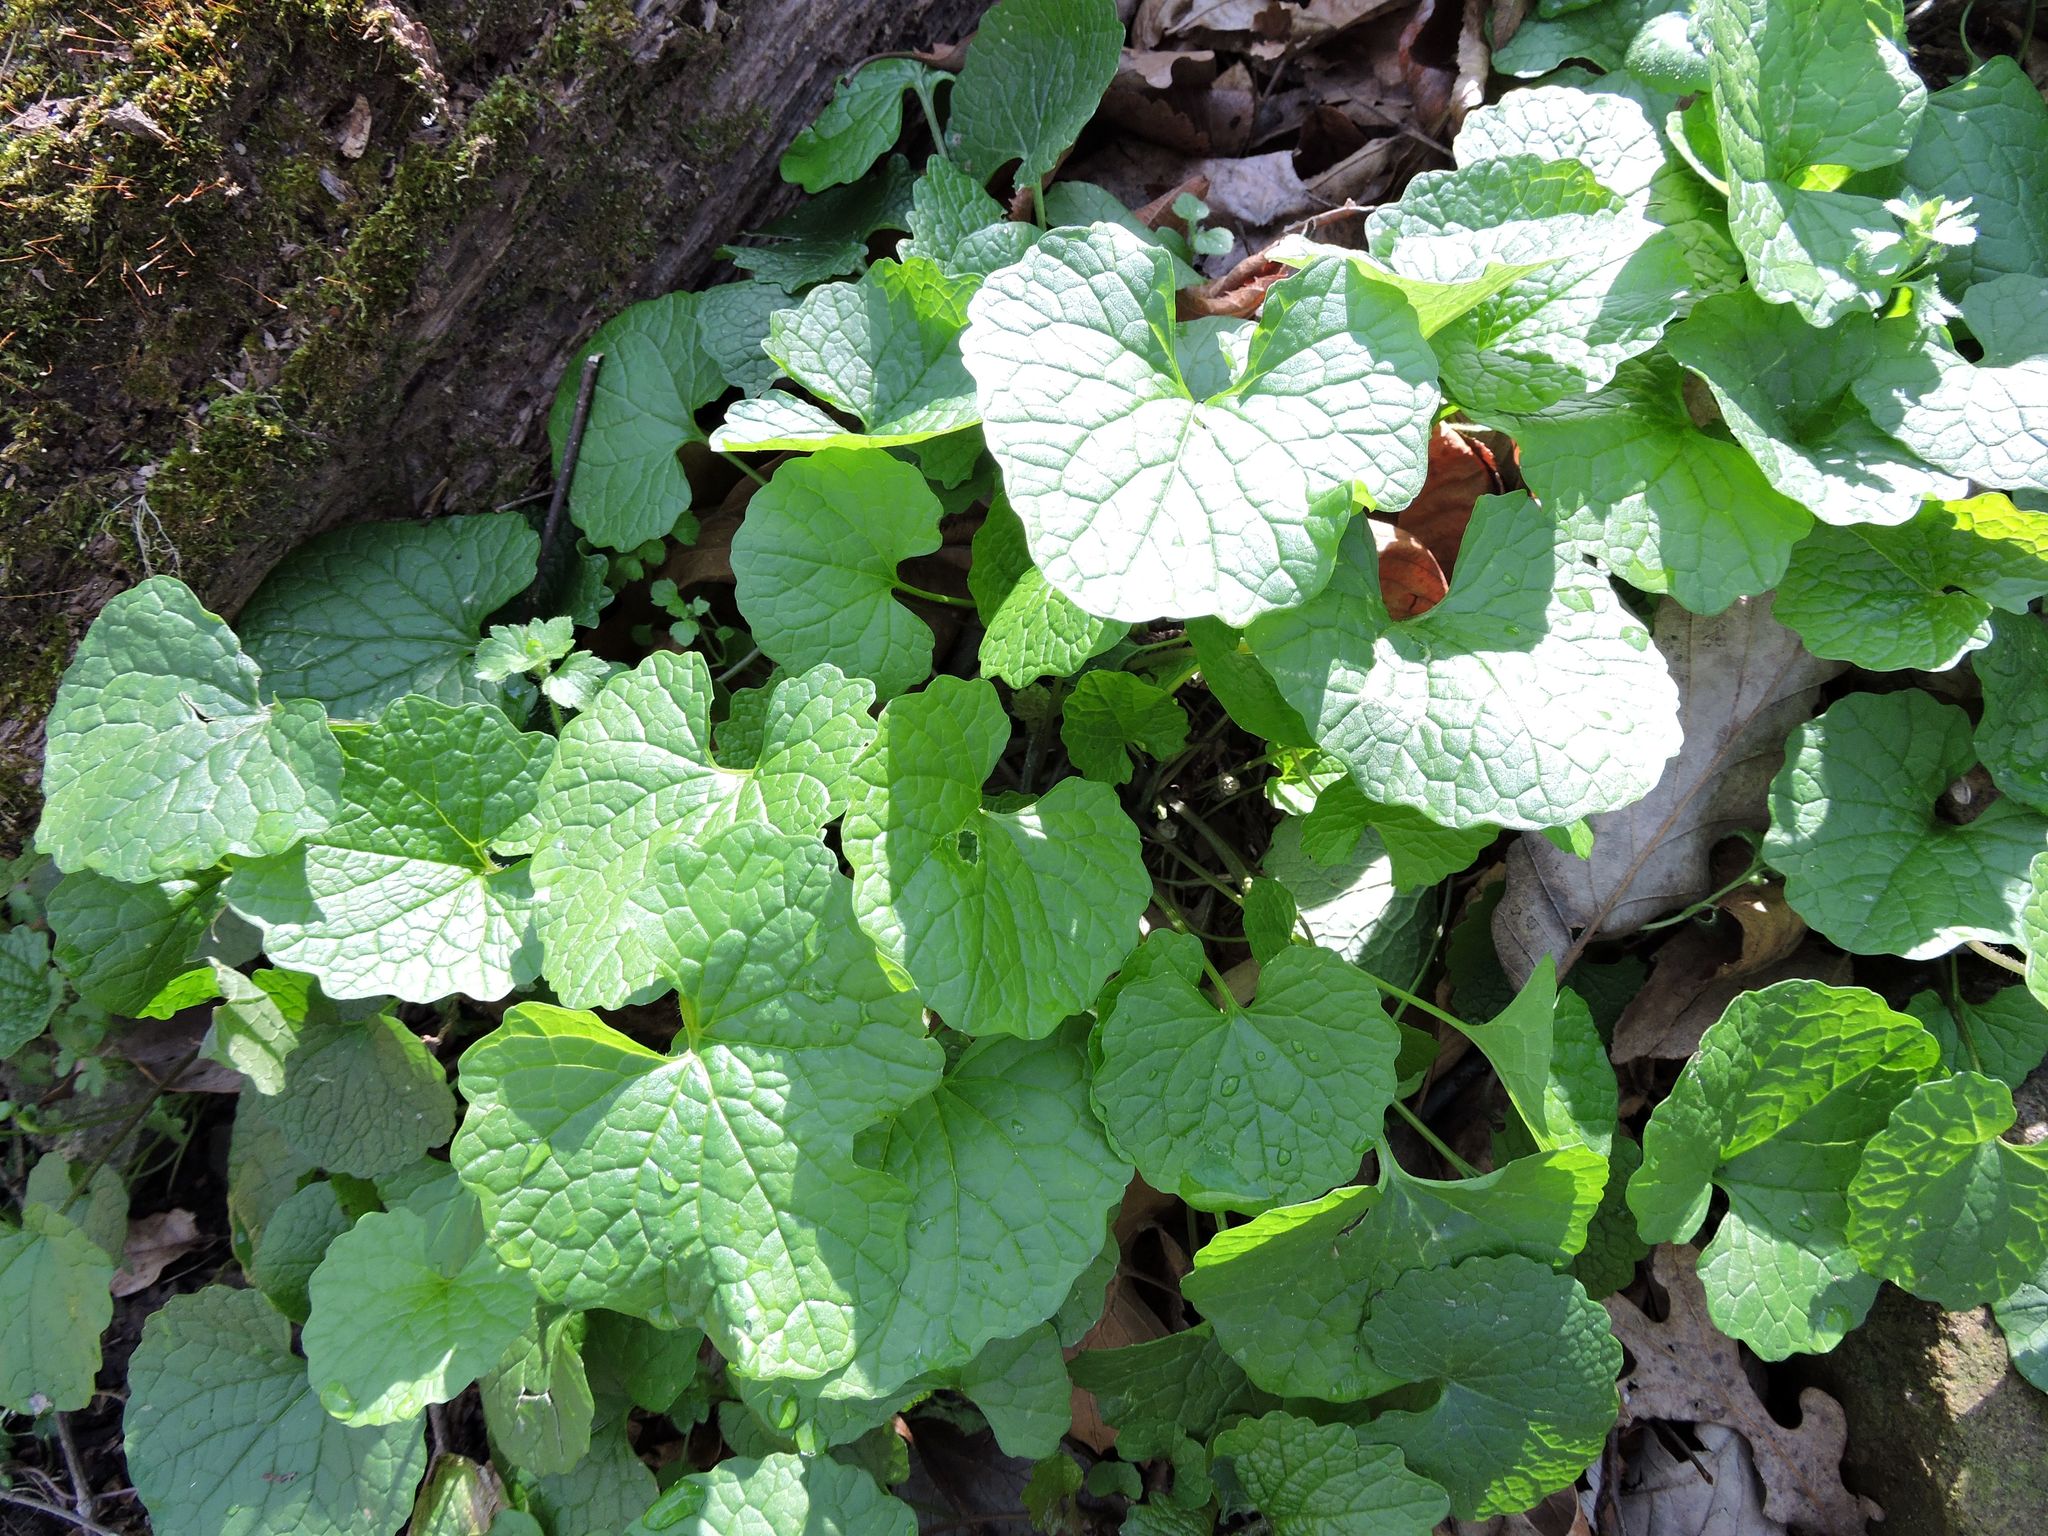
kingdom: Plantae
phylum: Tracheophyta
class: Magnoliopsida
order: Brassicales
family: Brassicaceae
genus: Alliaria
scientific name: Alliaria petiolata
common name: Garlic mustard
